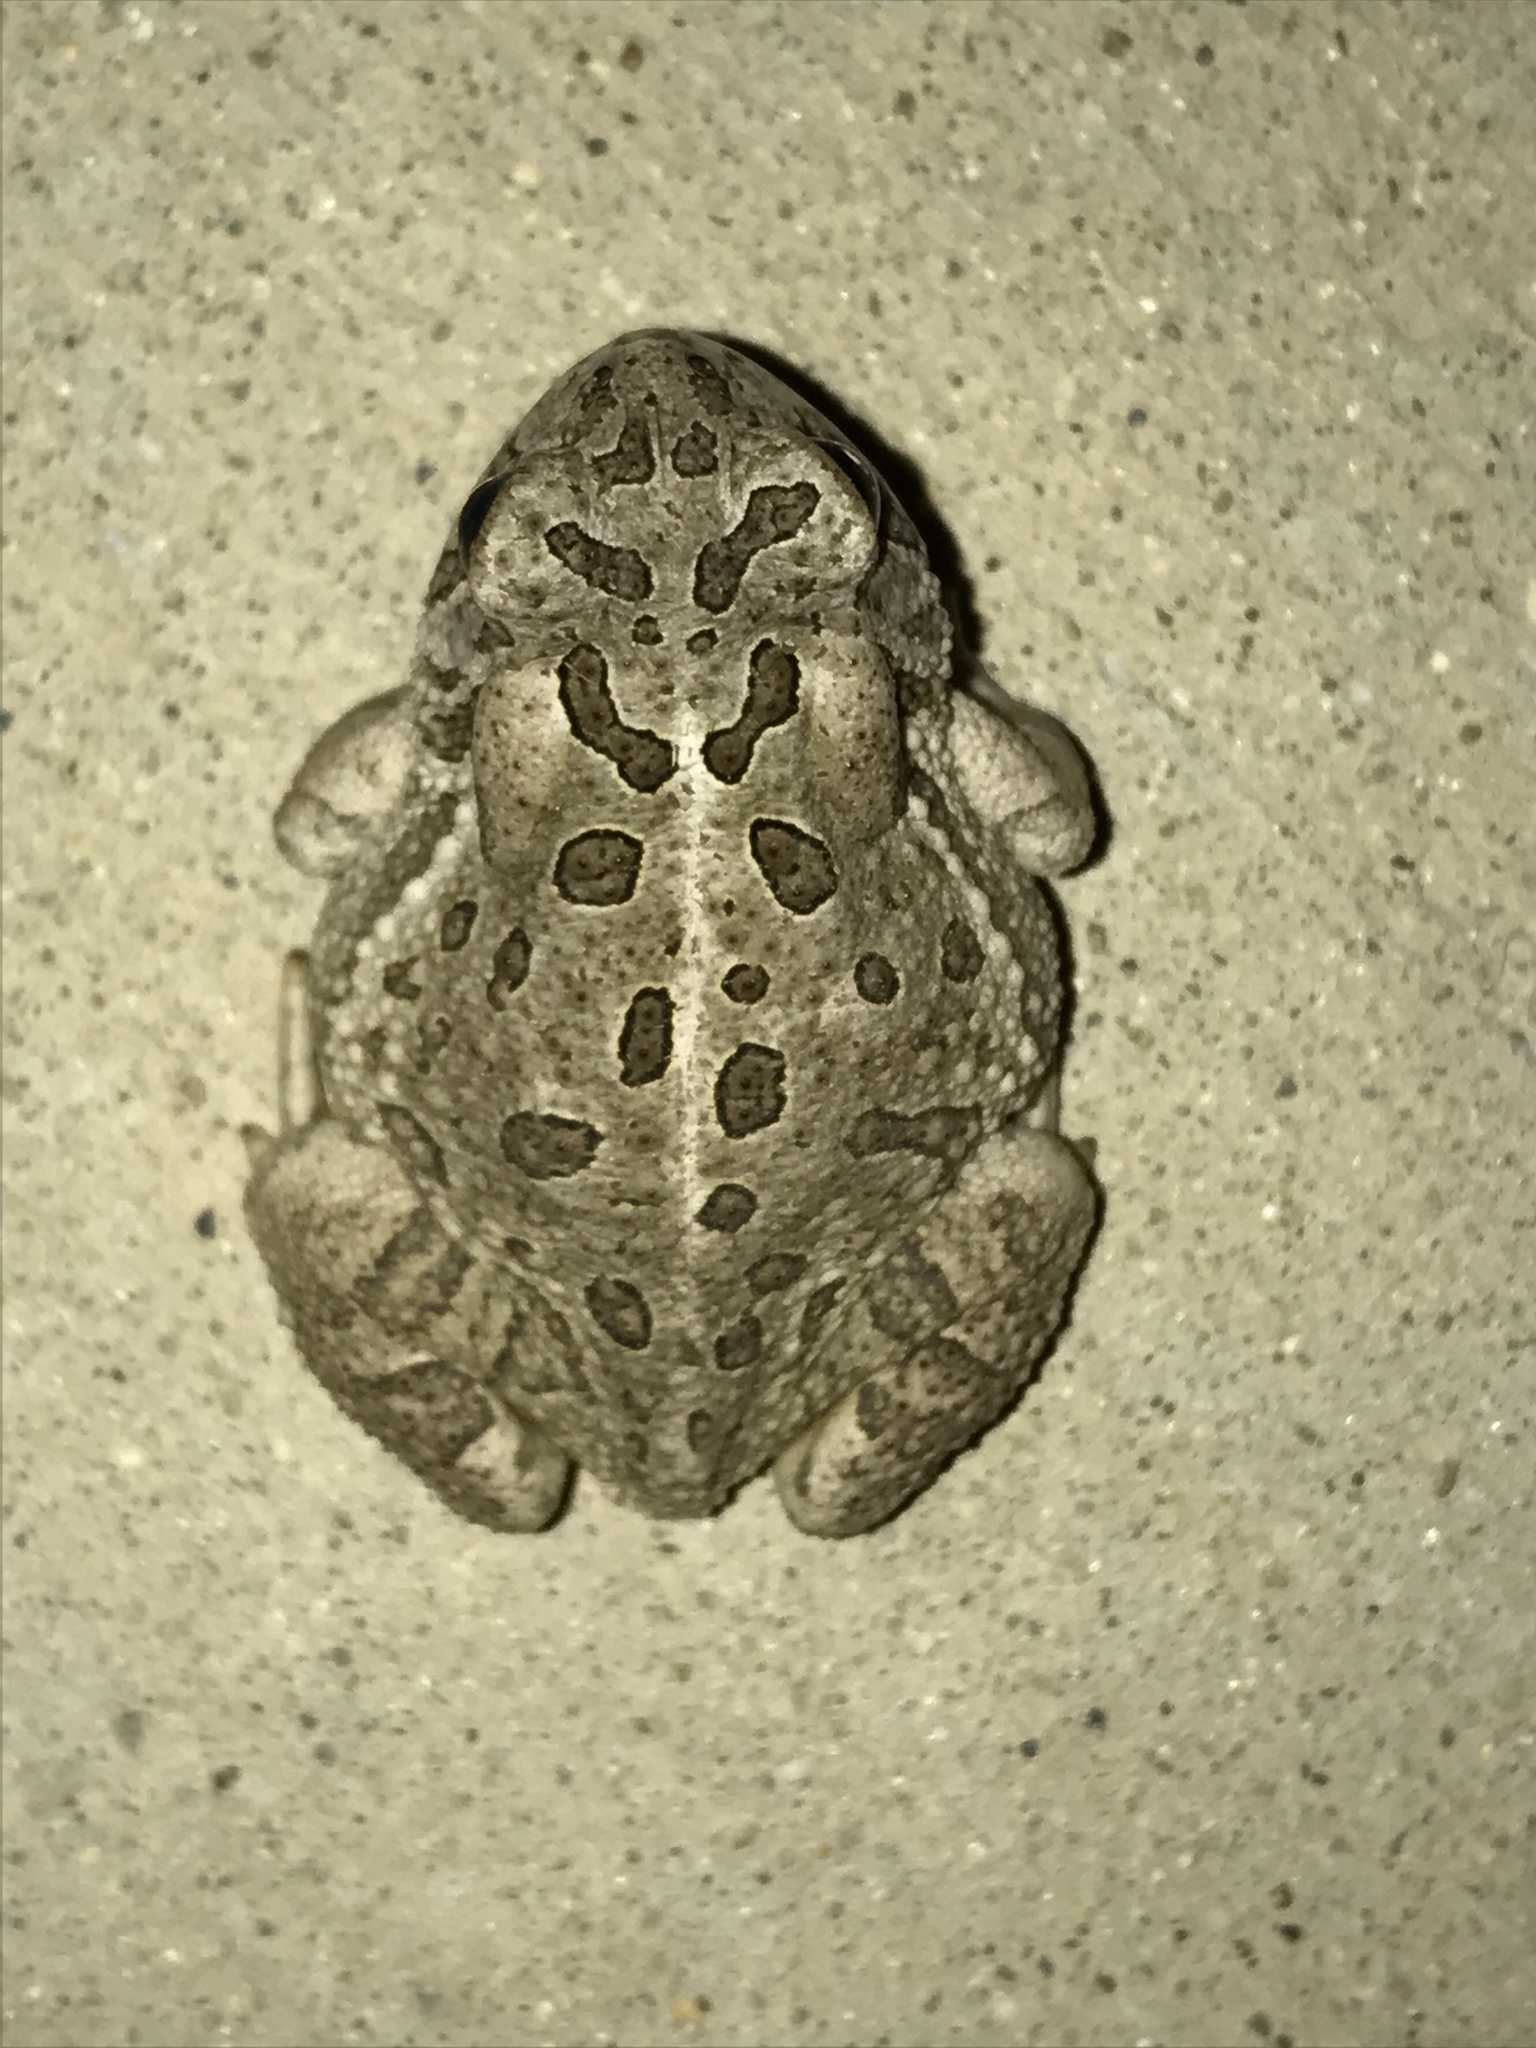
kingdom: Animalia
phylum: Chordata
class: Amphibia
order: Anura
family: Bufonidae
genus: Anaxyrus
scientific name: Anaxyrus fowleri
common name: Fowler's toad
